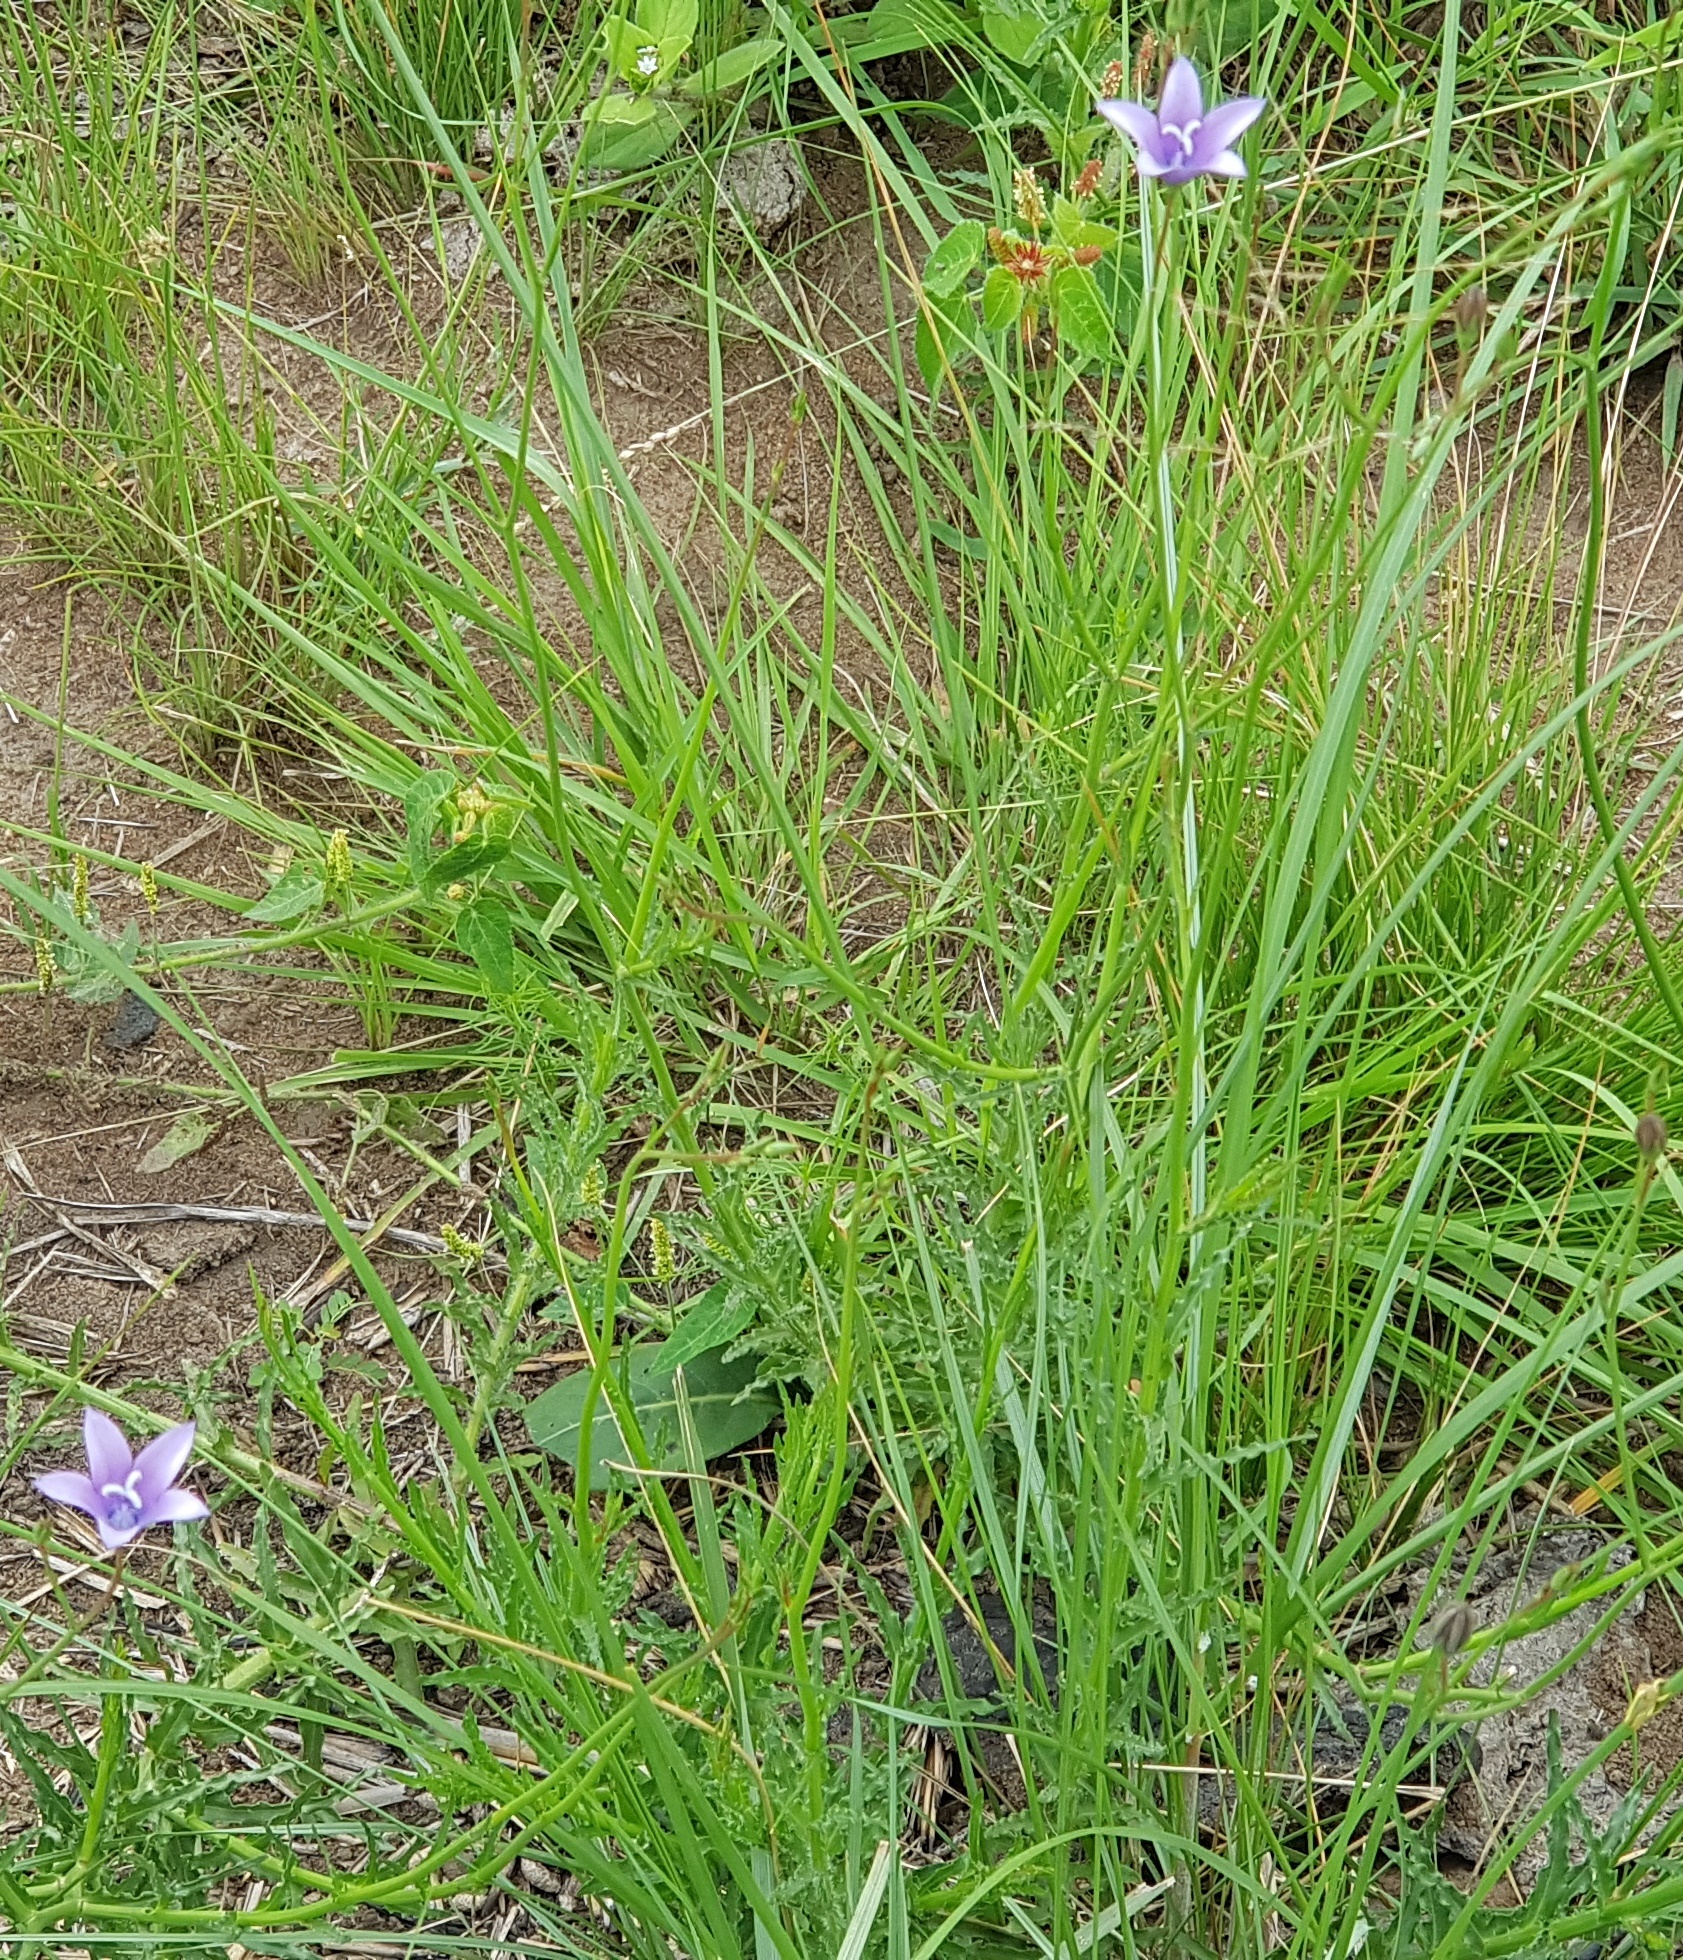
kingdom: Plantae
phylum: Tracheophyta
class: Magnoliopsida
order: Asterales
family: Campanulaceae
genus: Wahlenbergia
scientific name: Wahlenbergia pallidiflora
